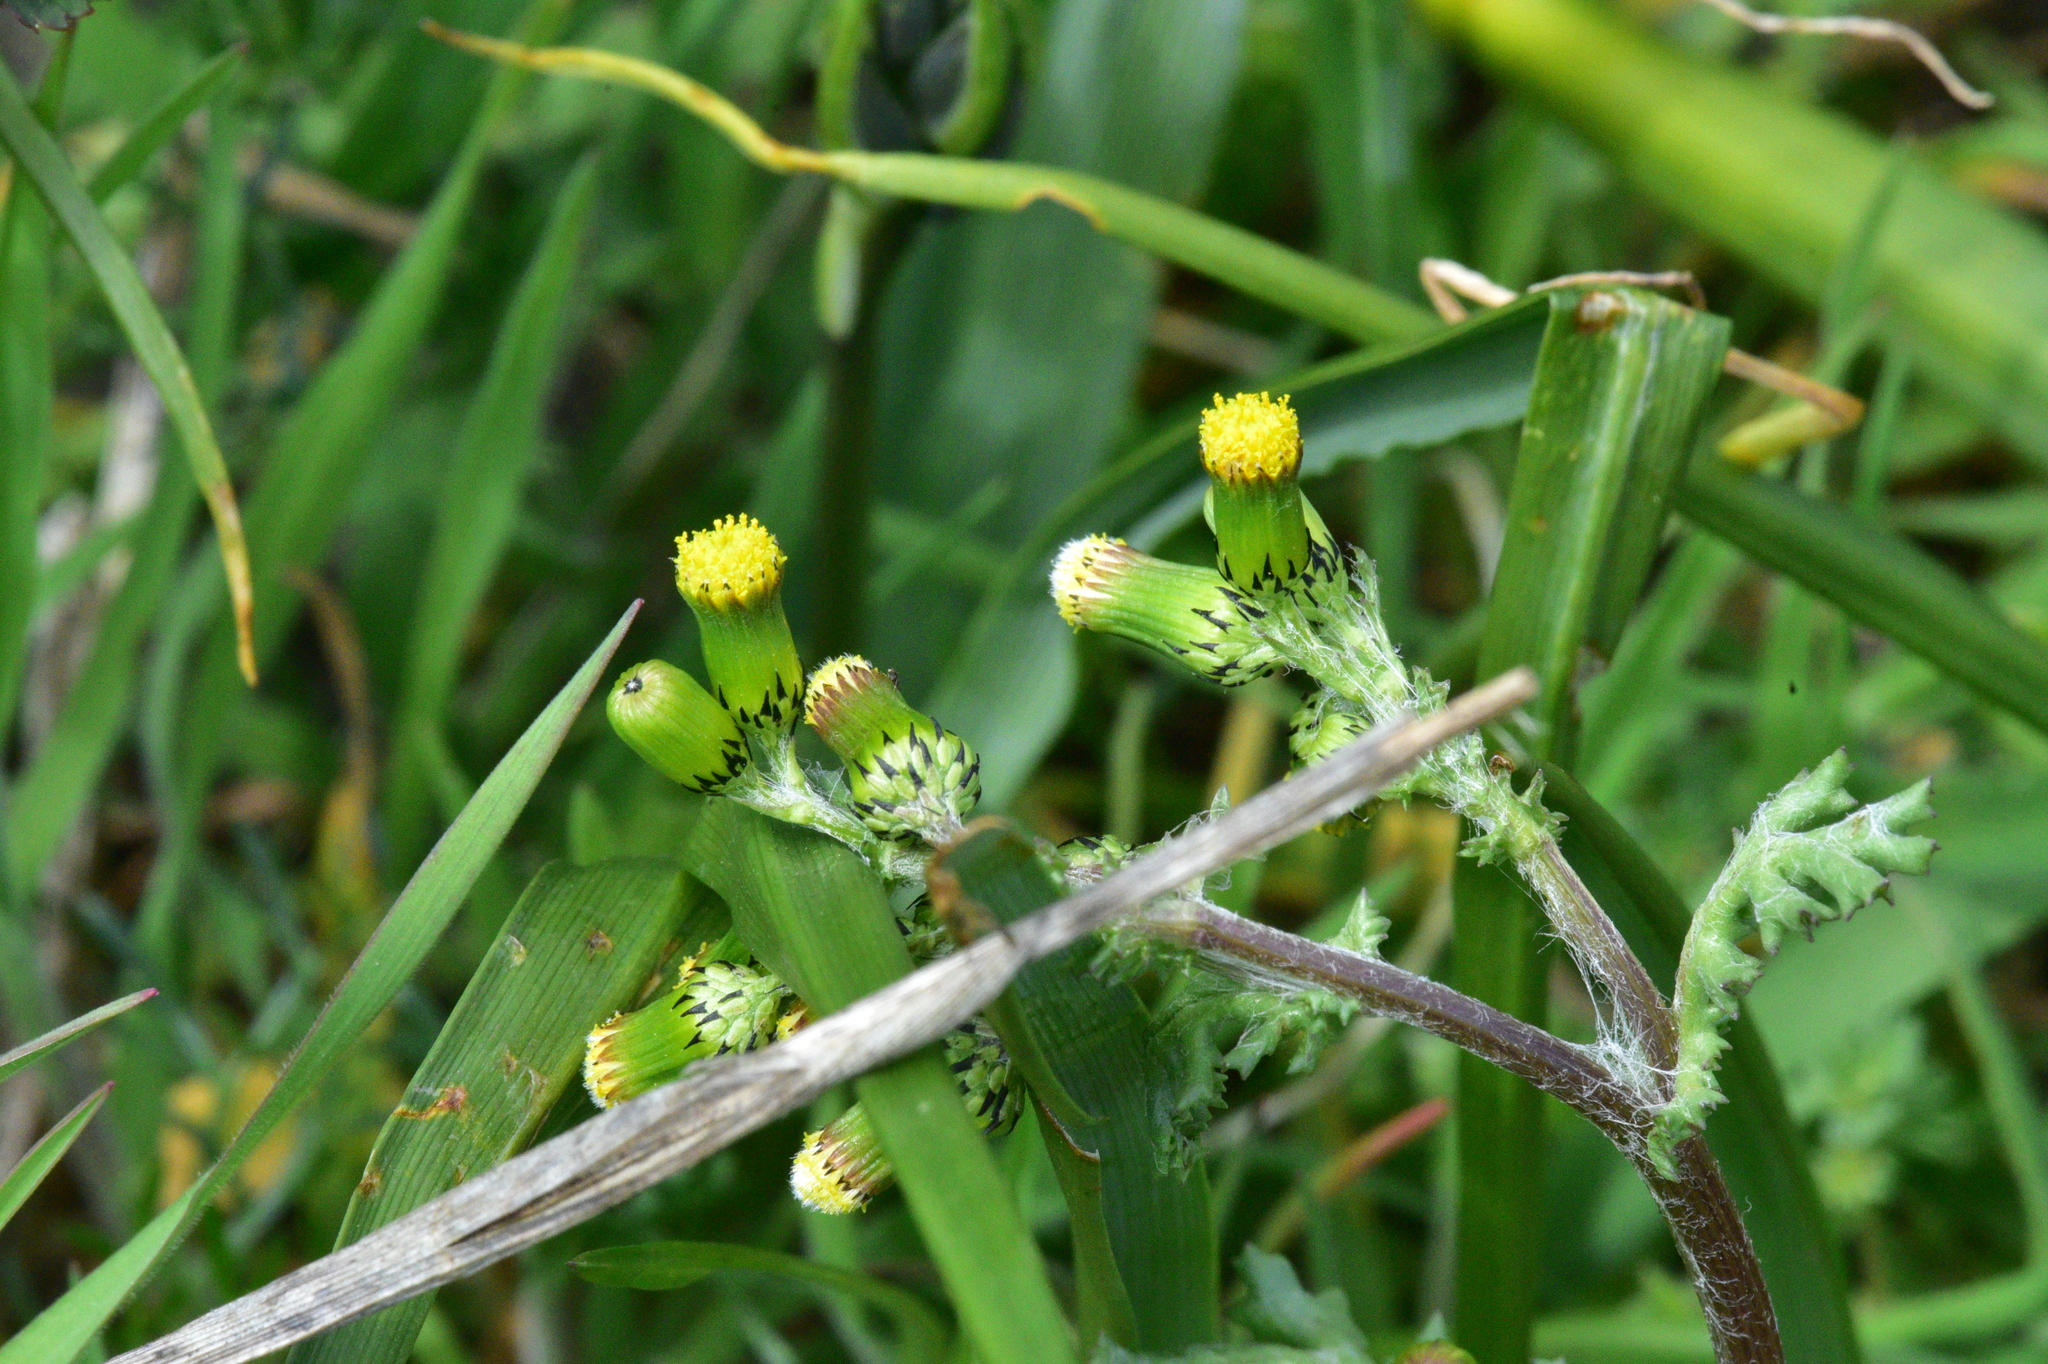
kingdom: Plantae
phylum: Tracheophyta
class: Magnoliopsida
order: Asterales
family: Asteraceae
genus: Senecio
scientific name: Senecio vulgaris
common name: Old-man-in-the-spring
